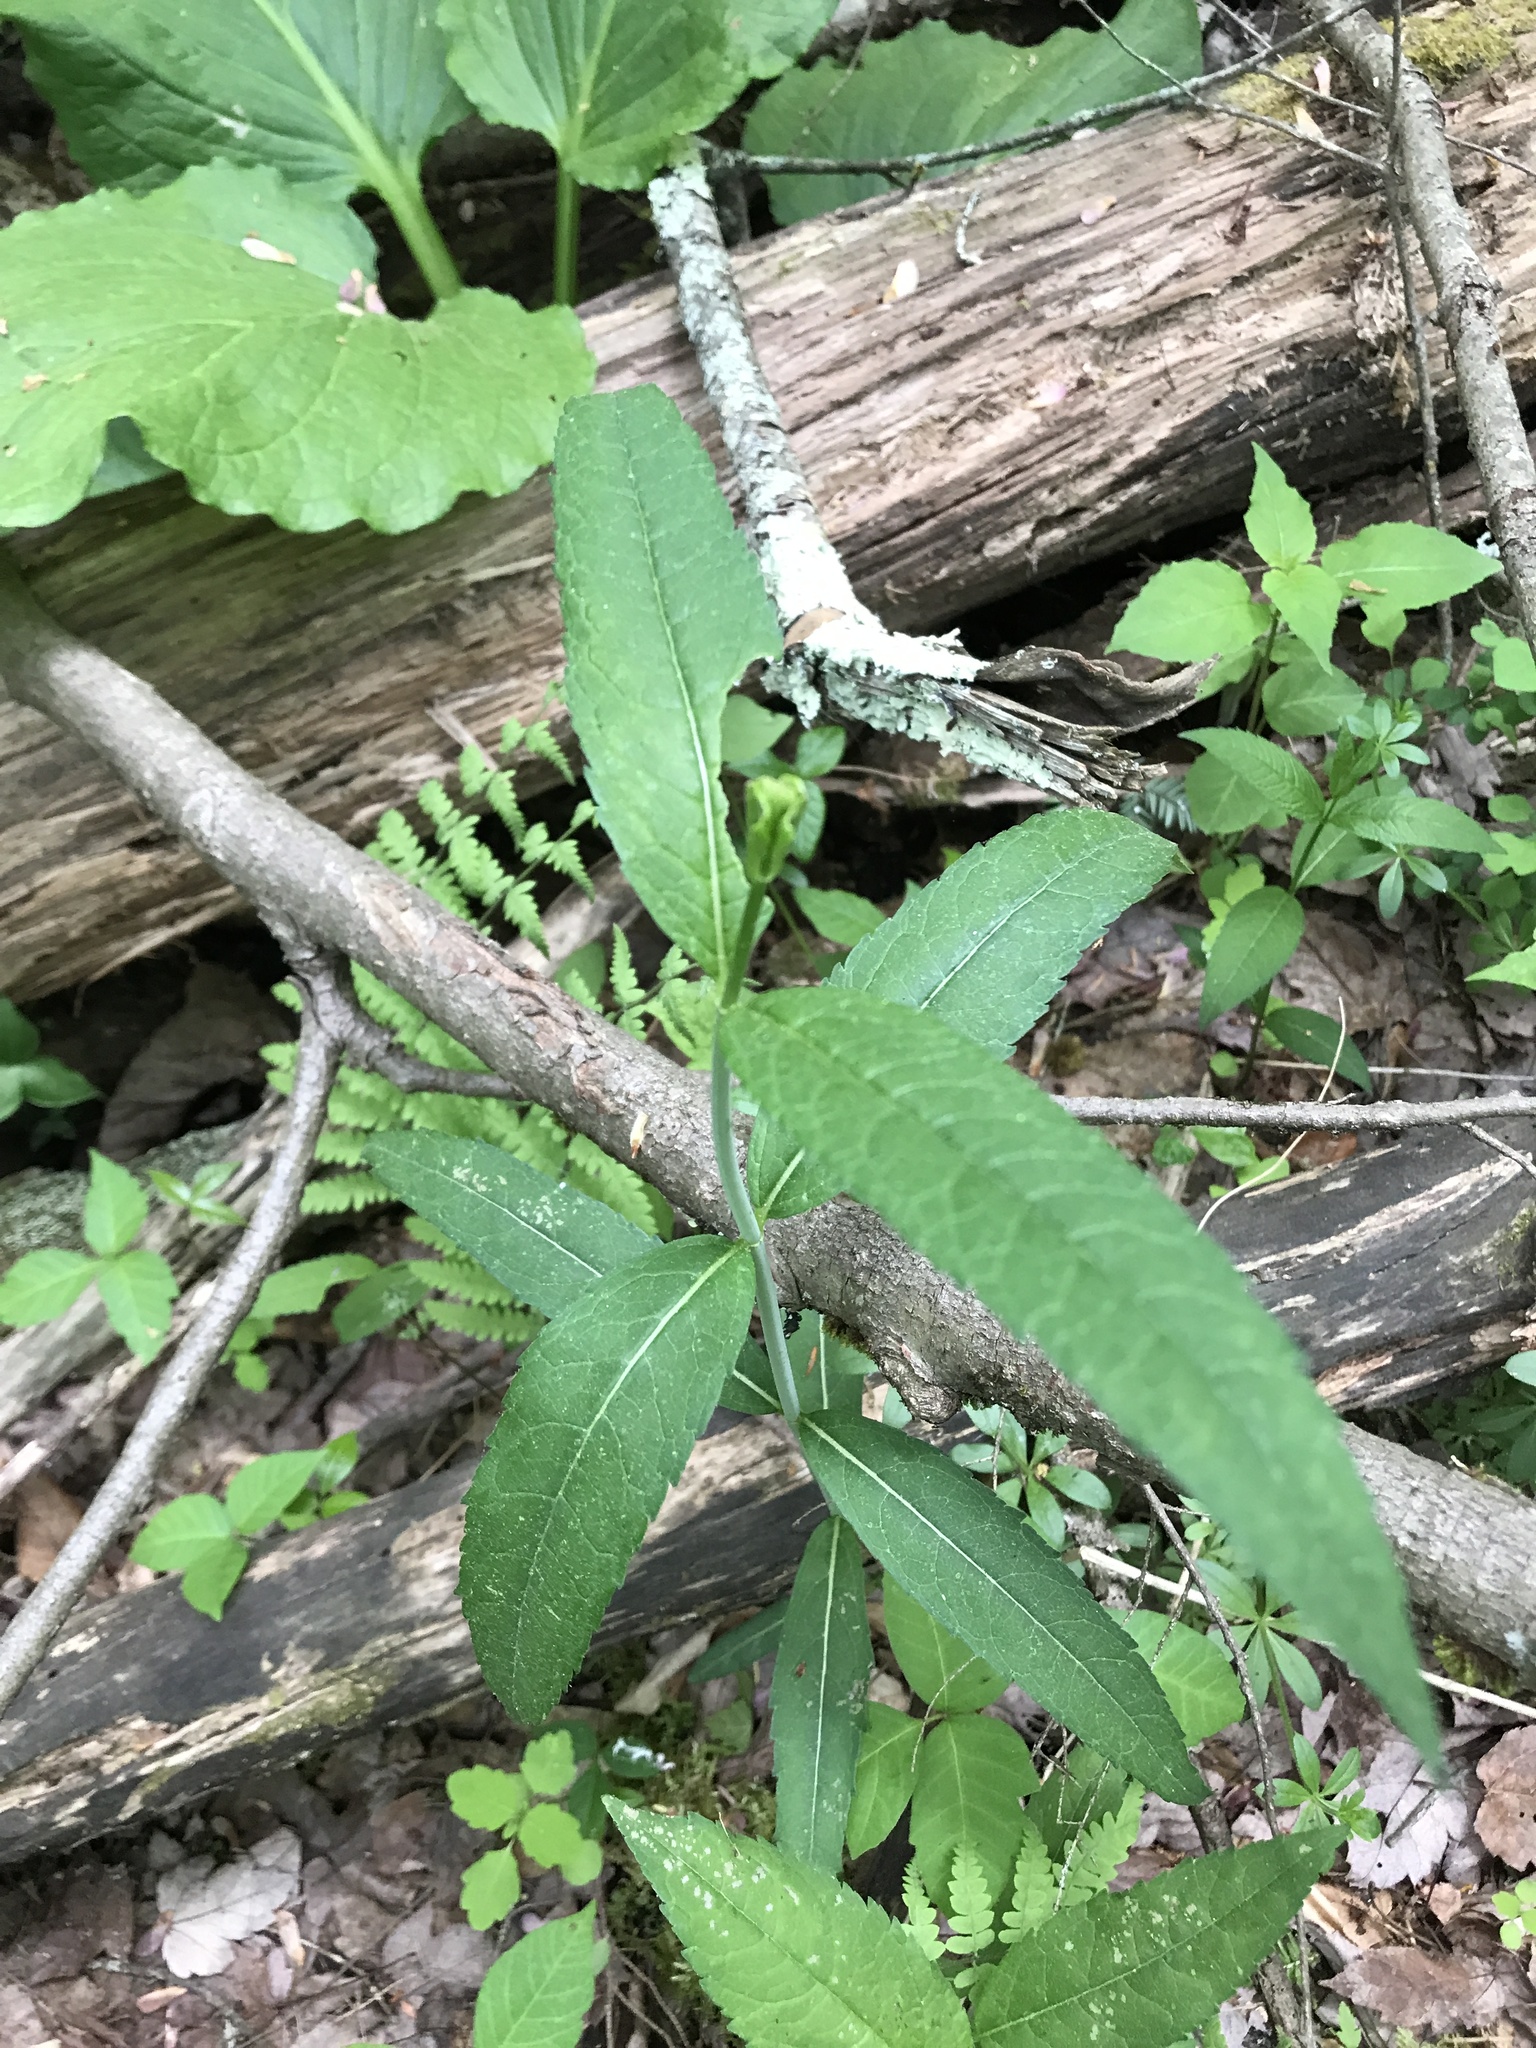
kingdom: Plantae
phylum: Tracheophyta
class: Magnoliopsida
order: Lamiales
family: Plantaginaceae
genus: Chelone
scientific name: Chelone glabra
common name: Snakehead
